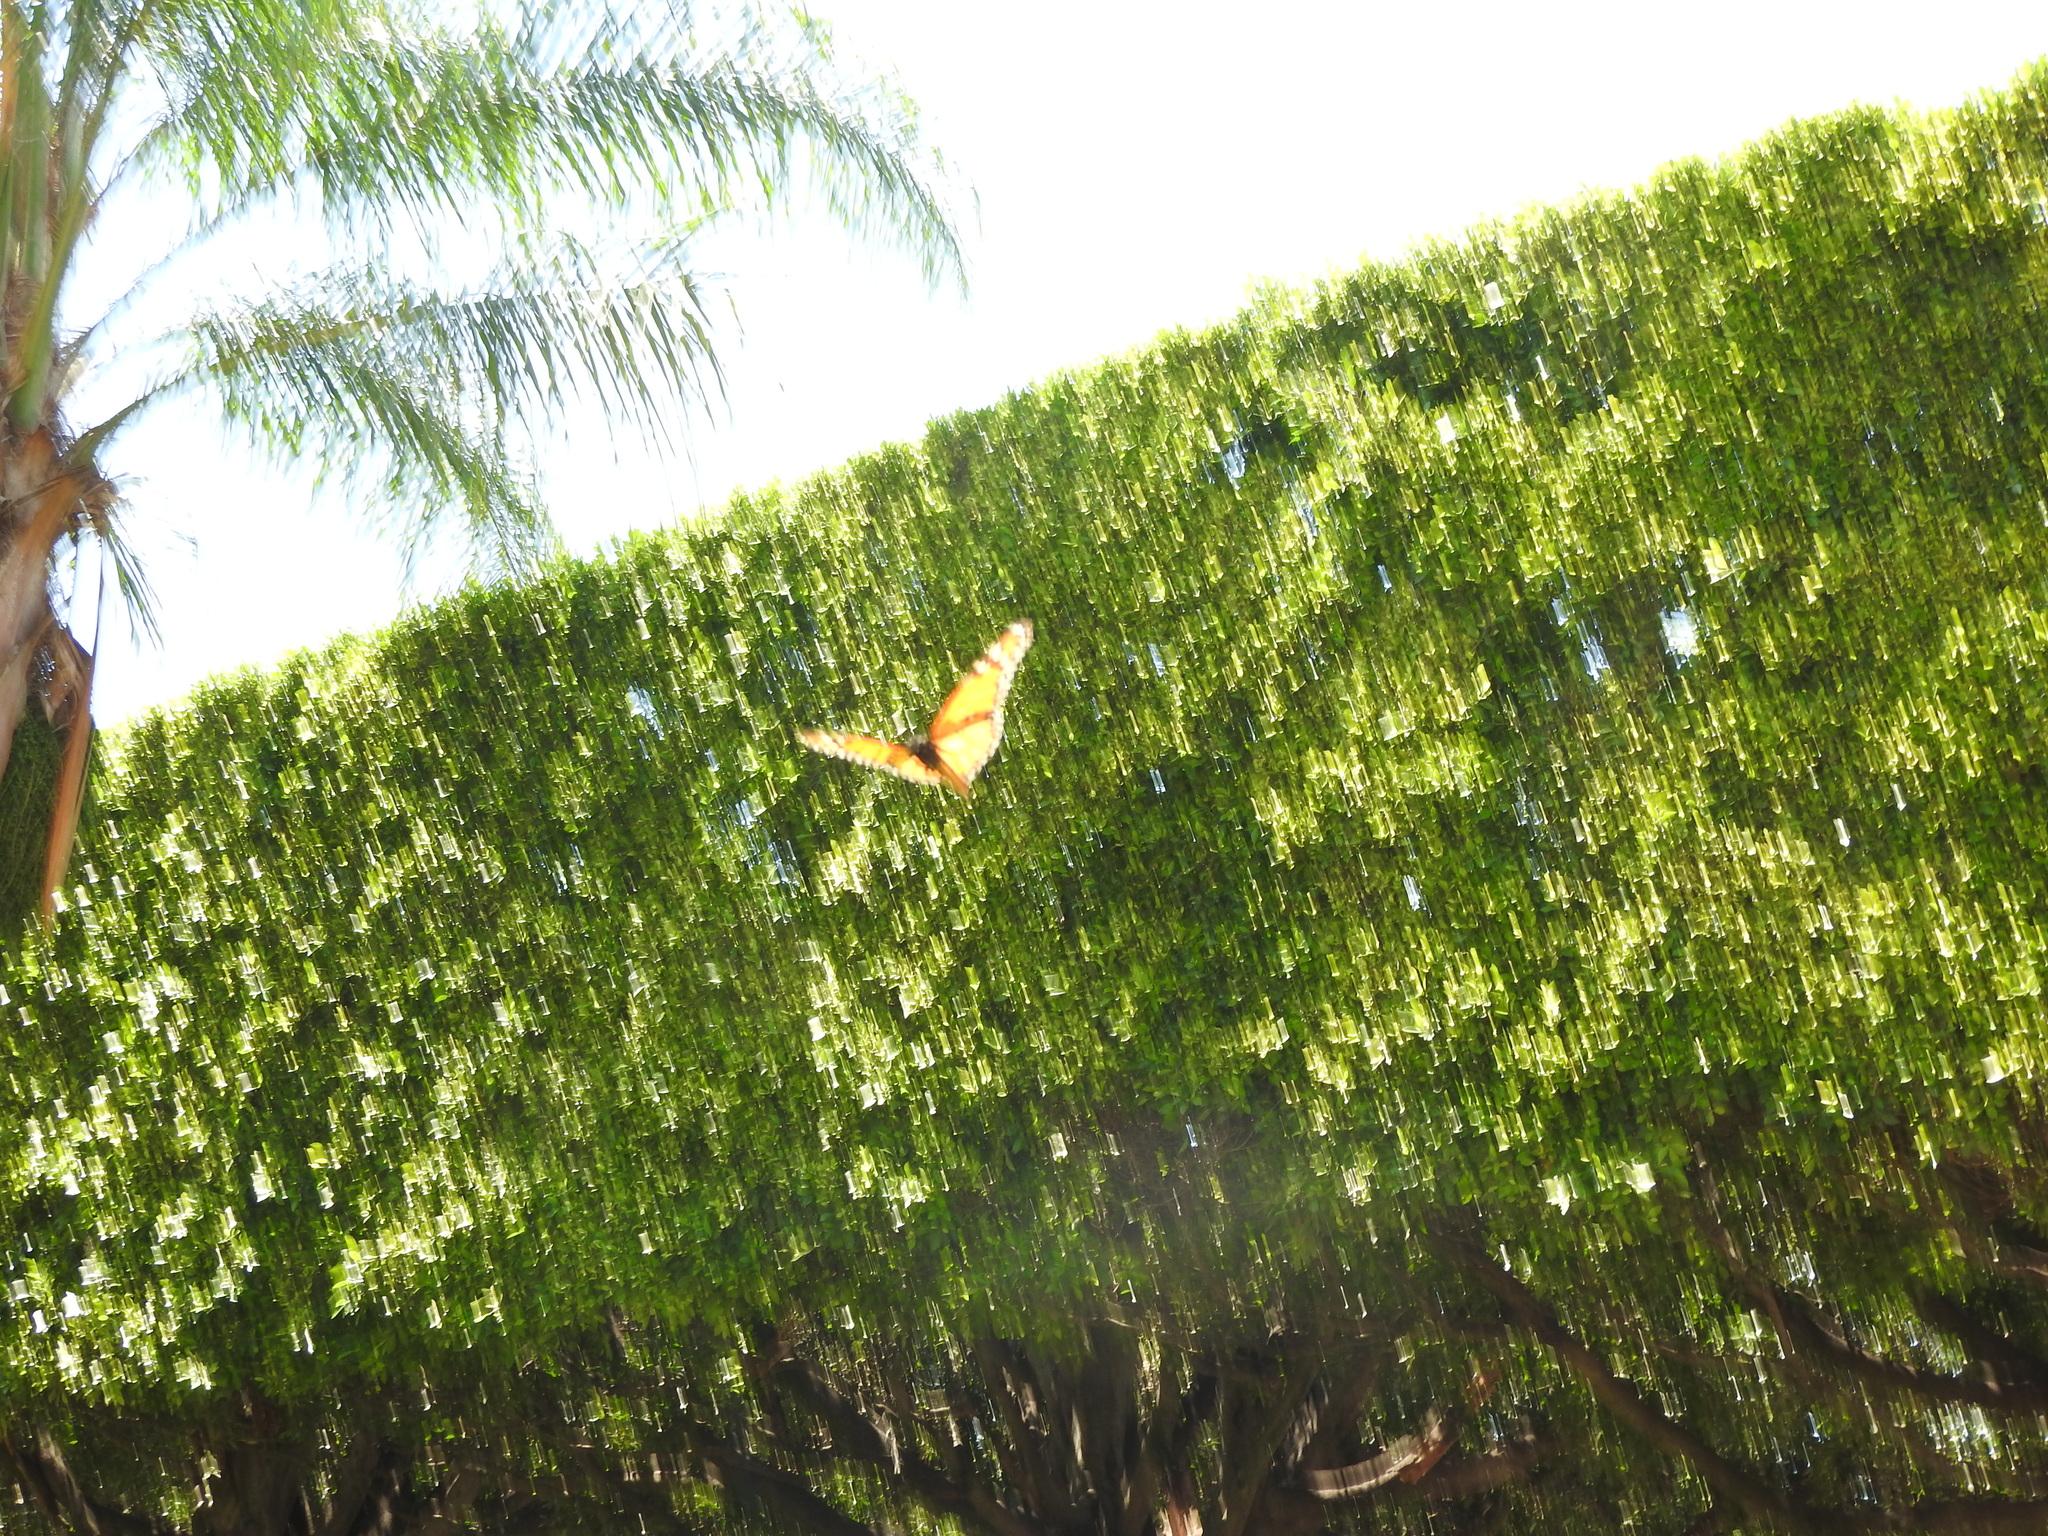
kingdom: Animalia
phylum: Arthropoda
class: Insecta
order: Lepidoptera
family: Nymphalidae
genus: Danaus
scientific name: Danaus plexippus
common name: Monarch
